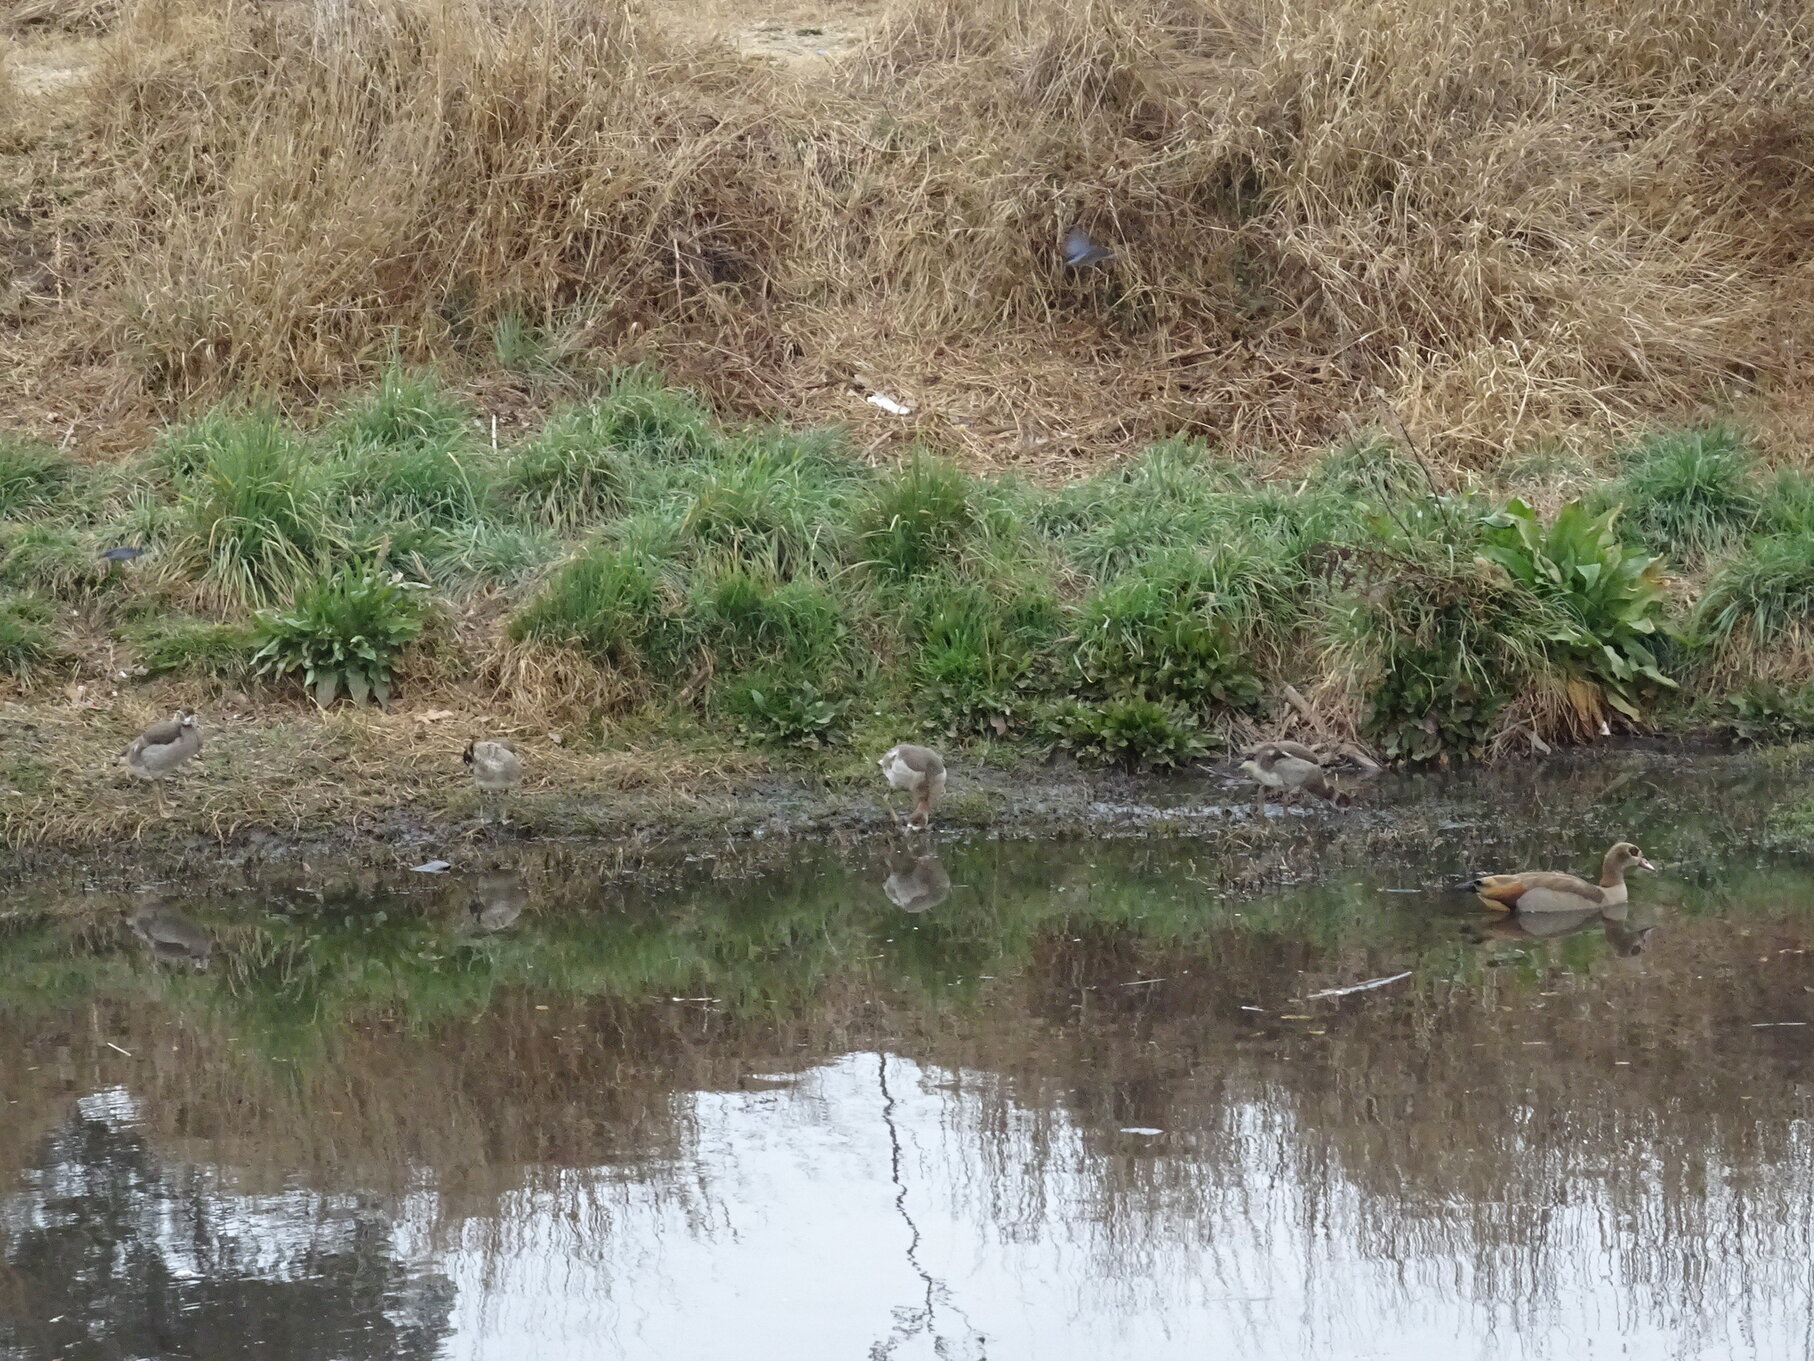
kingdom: Animalia
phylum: Chordata
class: Aves
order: Anseriformes
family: Anatidae
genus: Alopochen
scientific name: Alopochen aegyptiaca
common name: Egyptian goose
